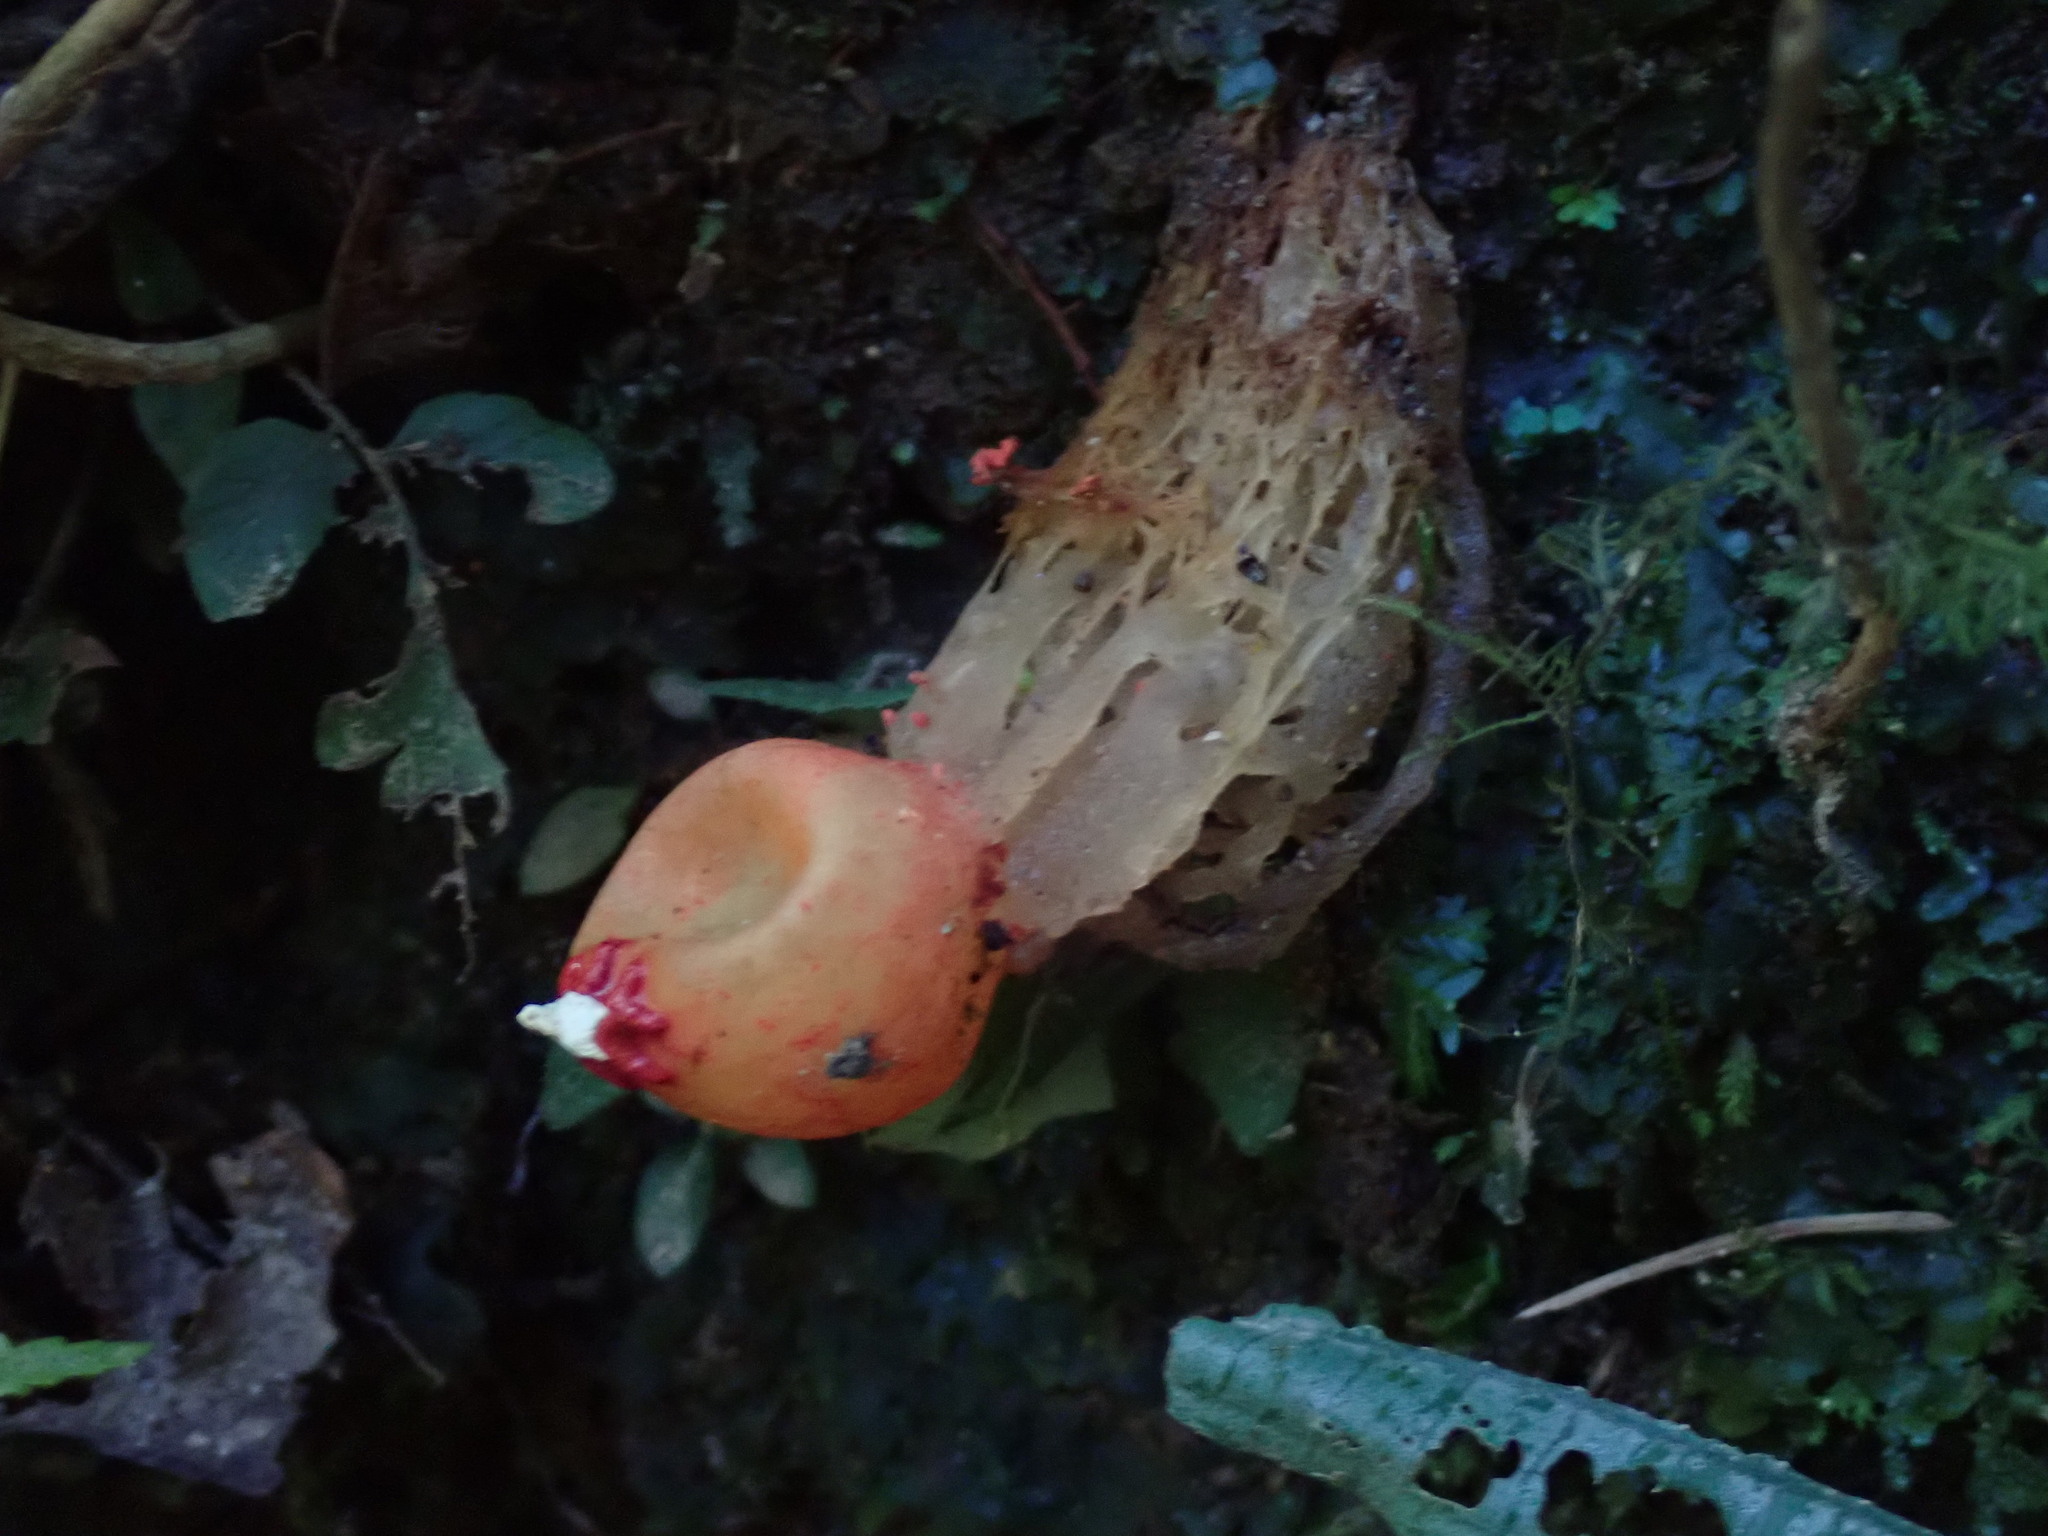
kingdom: Fungi
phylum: Basidiomycota
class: Agaricomycetes
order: Boletales
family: Calostomataceae
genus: Calostoma
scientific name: Calostoma cinnabarinum
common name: Stalked puffball-in-aspic
